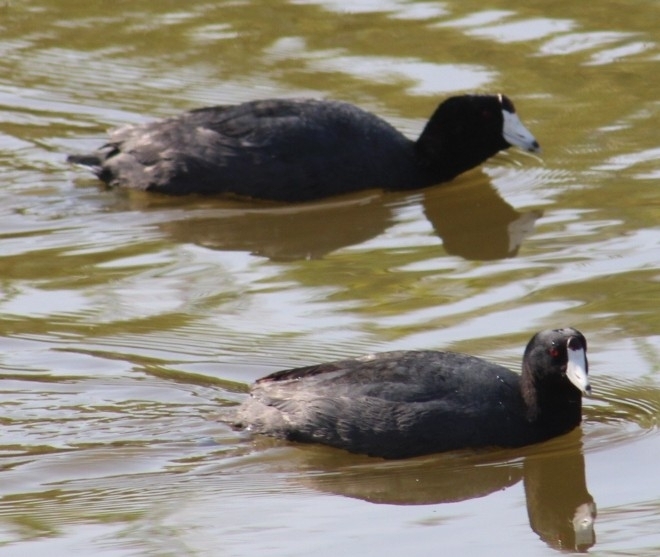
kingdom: Animalia
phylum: Chordata
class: Aves
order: Gruiformes
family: Rallidae
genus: Fulica
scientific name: Fulica americana
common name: American coot
